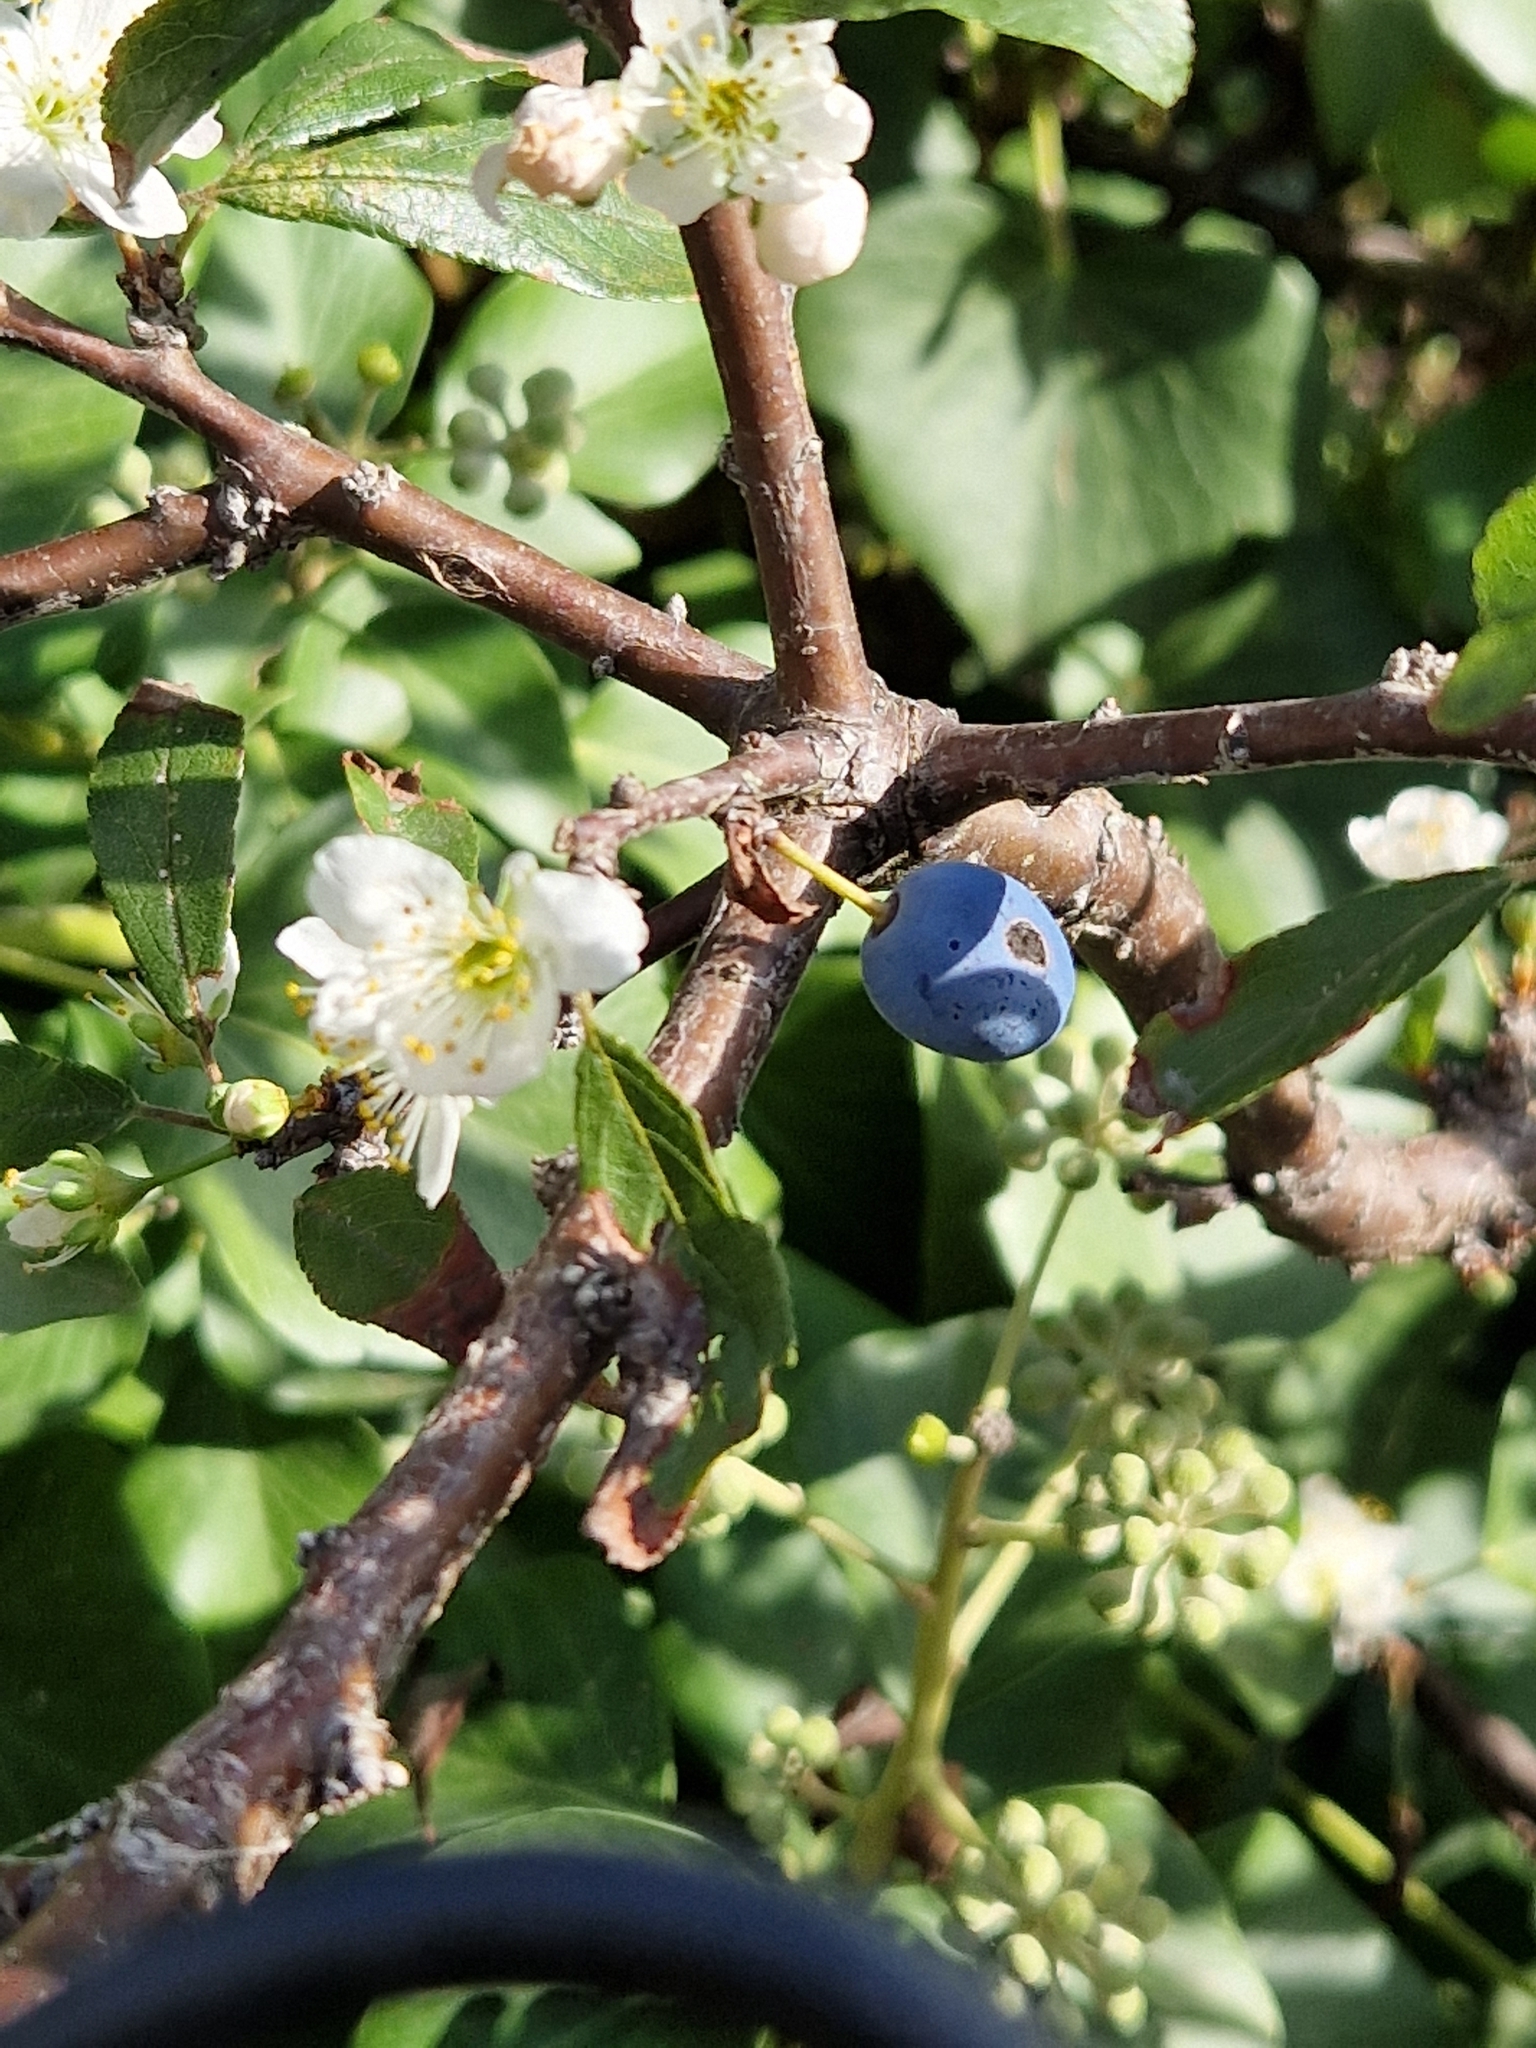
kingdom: Plantae
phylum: Tracheophyta
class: Magnoliopsida
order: Rosales
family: Rosaceae
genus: Prunus
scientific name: Prunus spinosa
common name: Blackthorn
